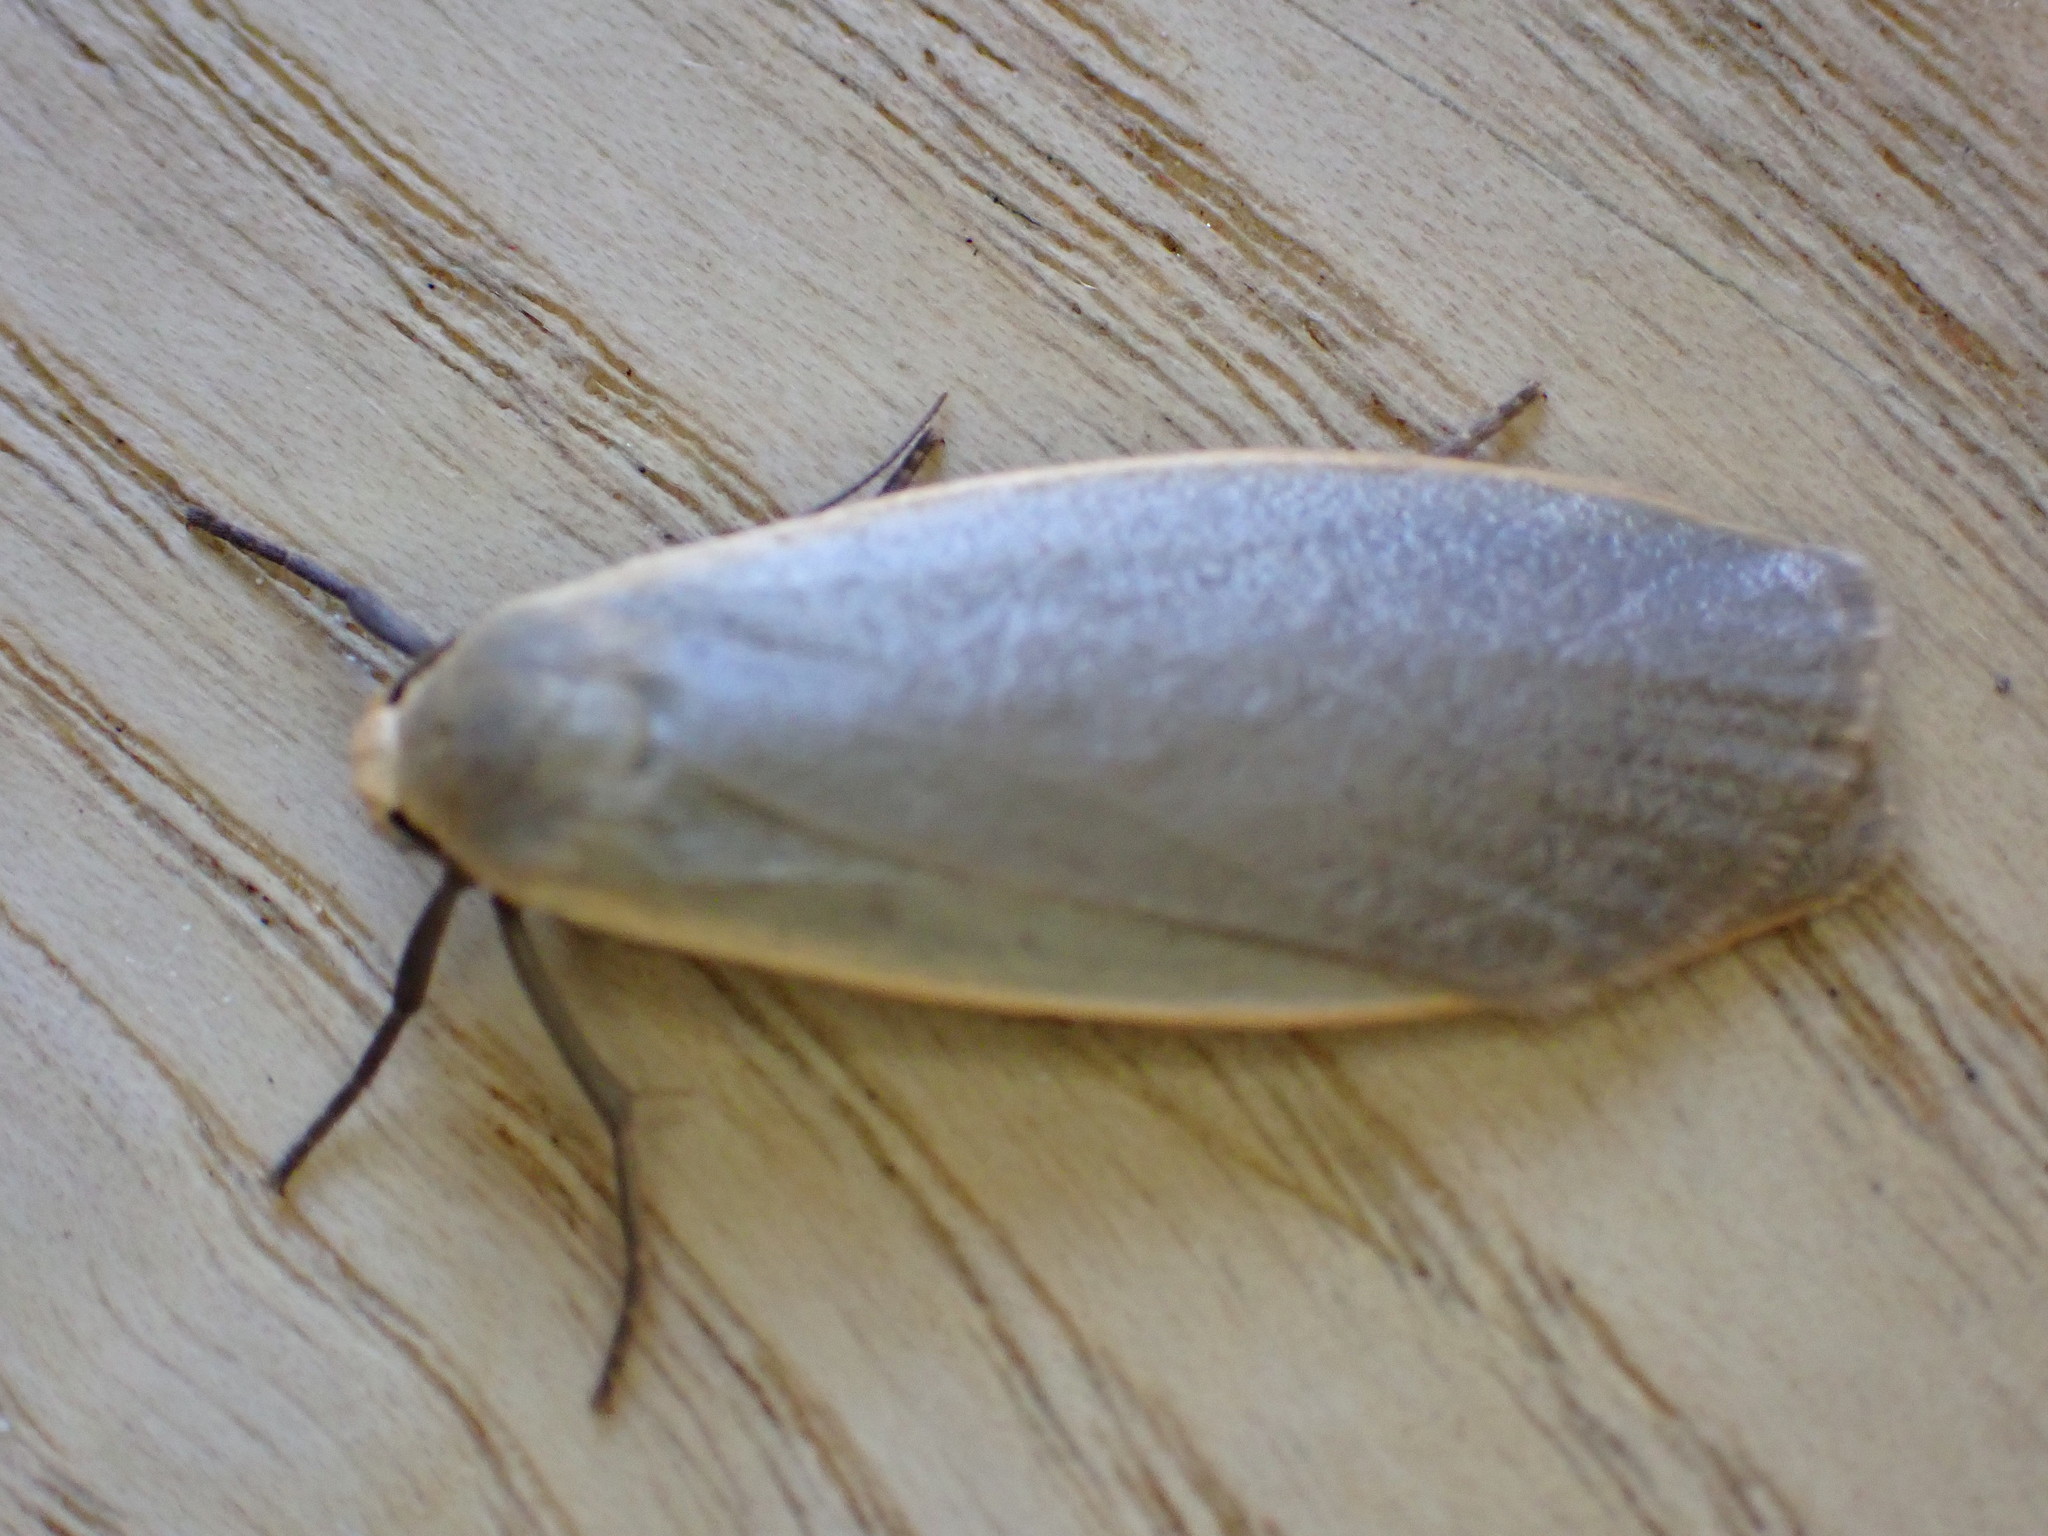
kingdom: Animalia
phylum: Arthropoda
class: Insecta
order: Lepidoptera
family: Erebidae
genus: Collita
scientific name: Collita griseola
